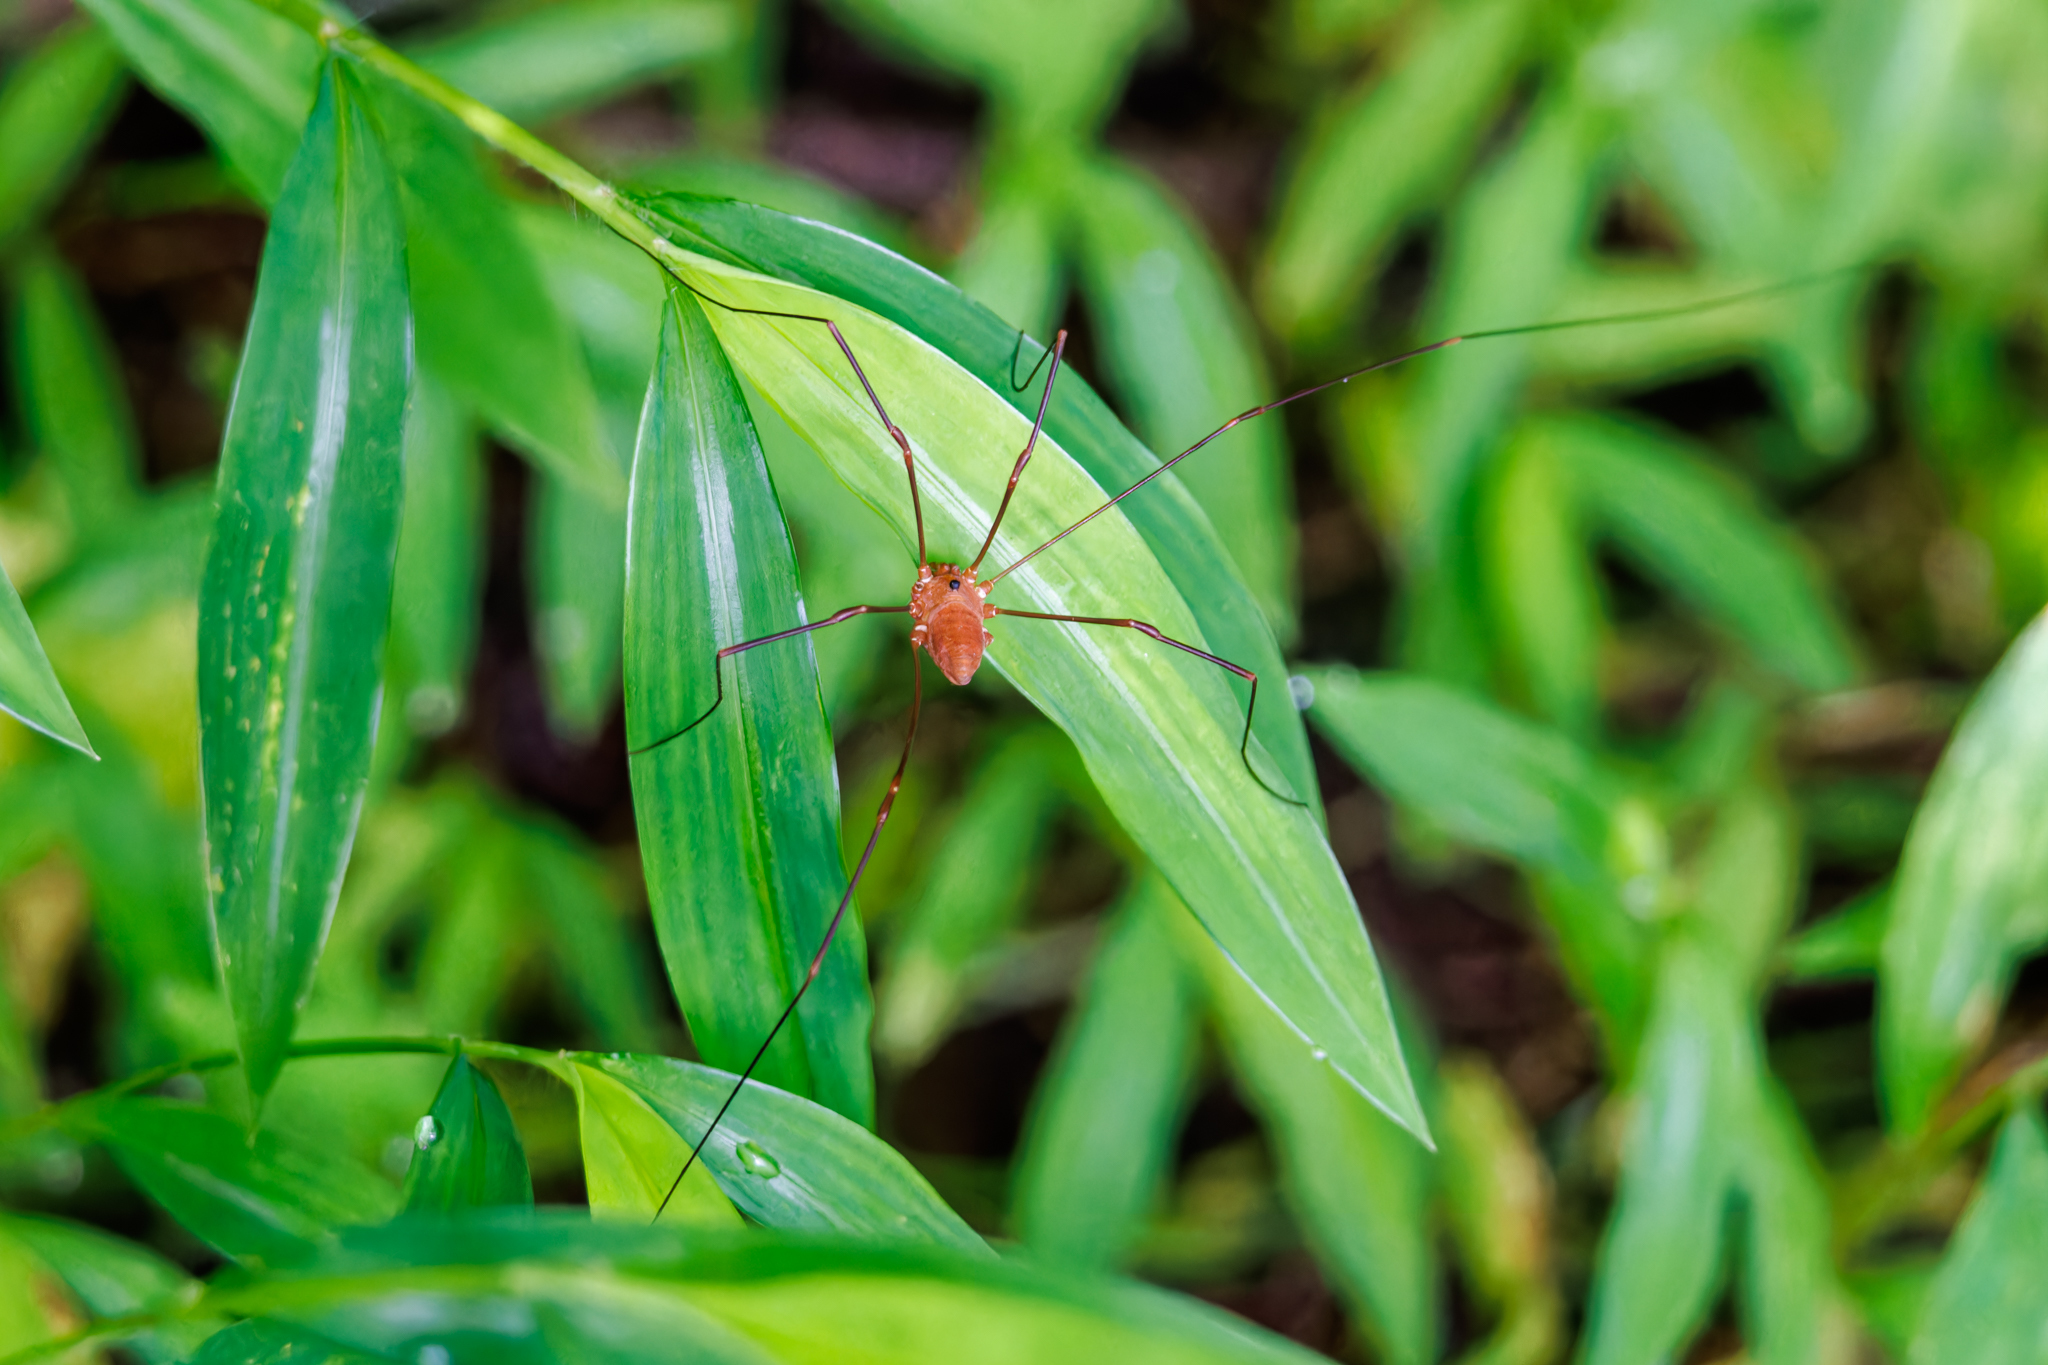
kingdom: Animalia
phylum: Arthropoda
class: Arachnida
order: Opiliones
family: Sclerosomatidae
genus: Leiobunum
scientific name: Leiobunum ventricosum
